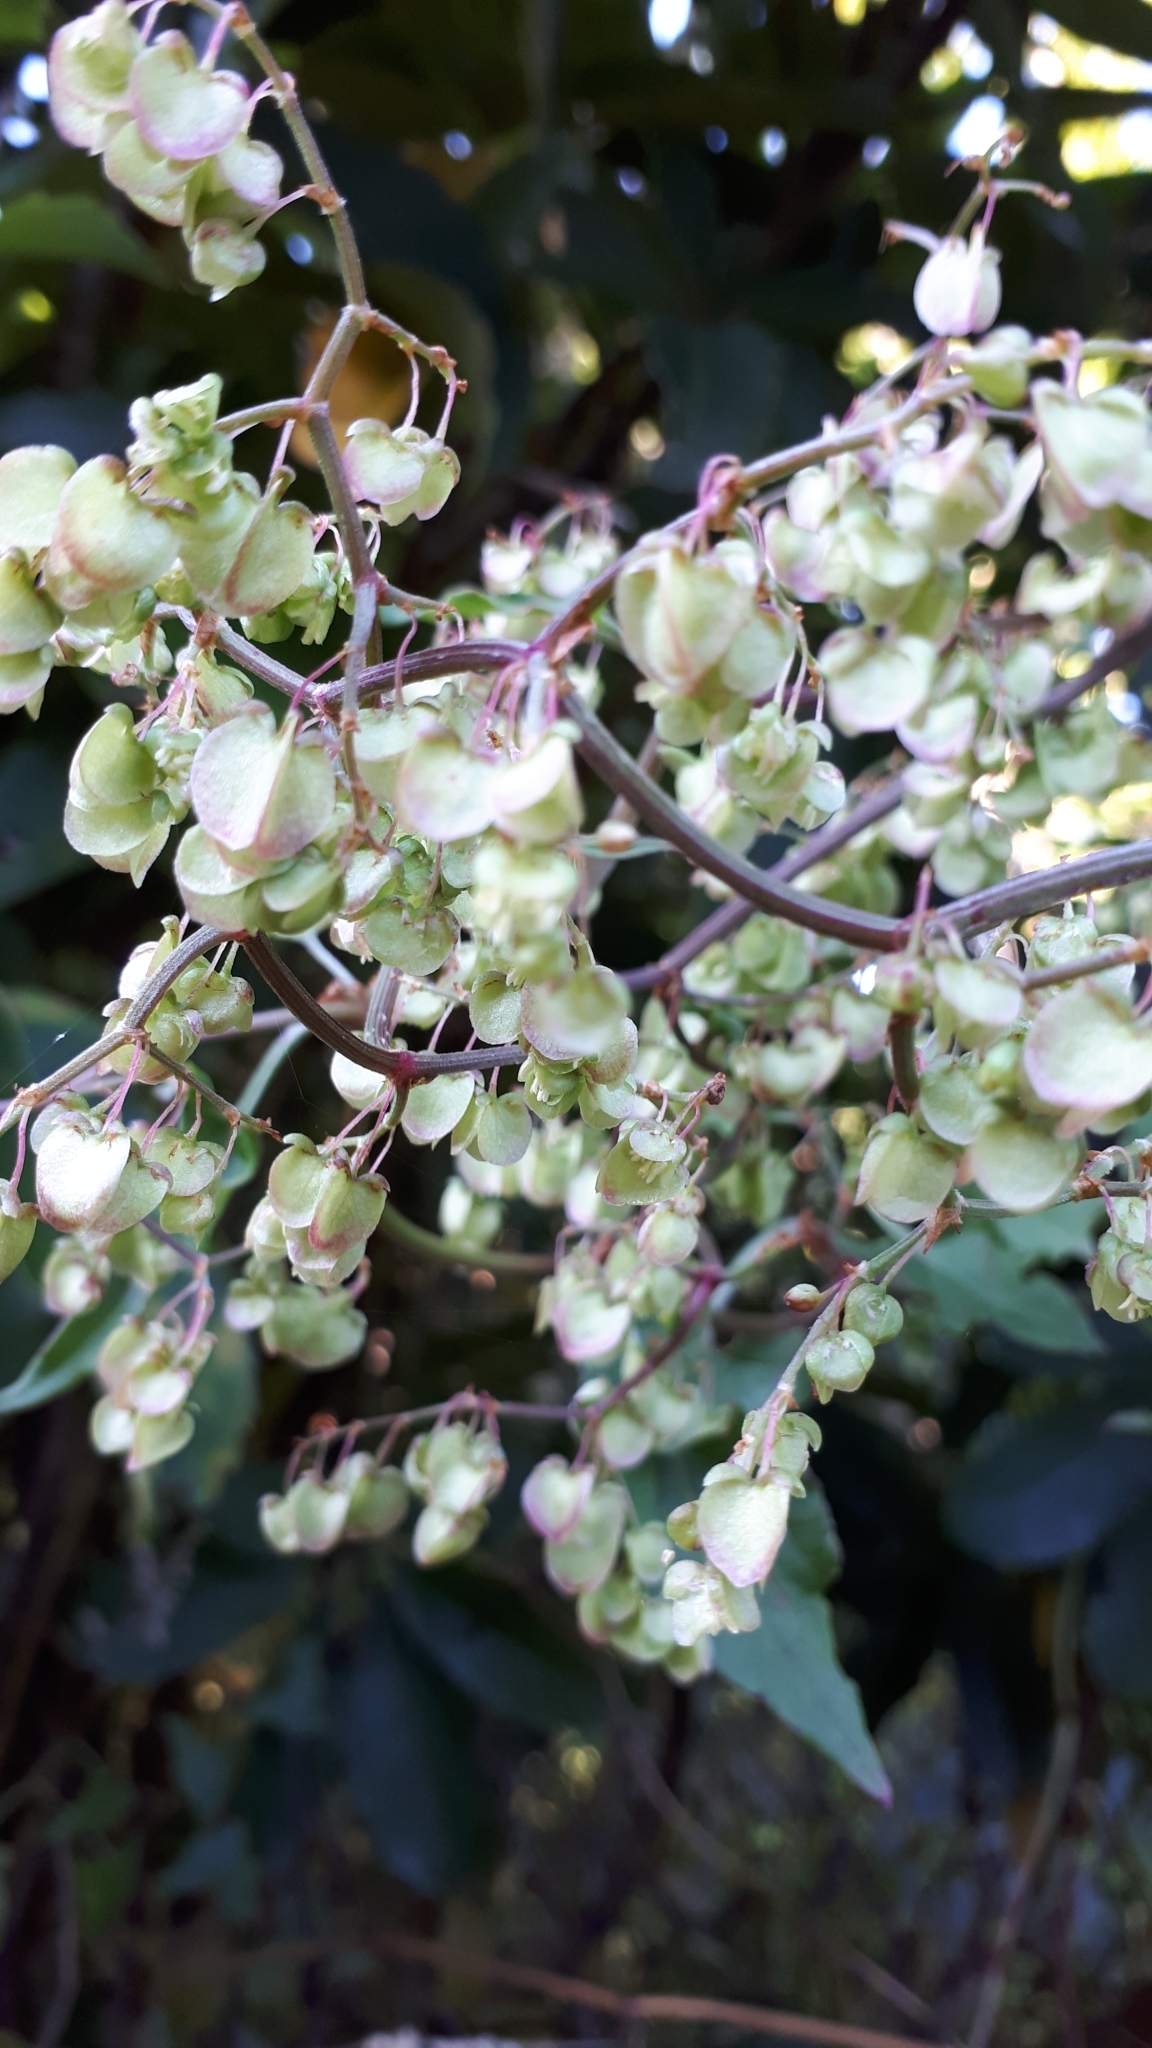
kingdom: Plantae
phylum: Tracheophyta
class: Magnoliopsida
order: Caryophyllales
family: Polygonaceae
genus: Rumex
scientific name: Rumex sagittatus
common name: Climbing dock
